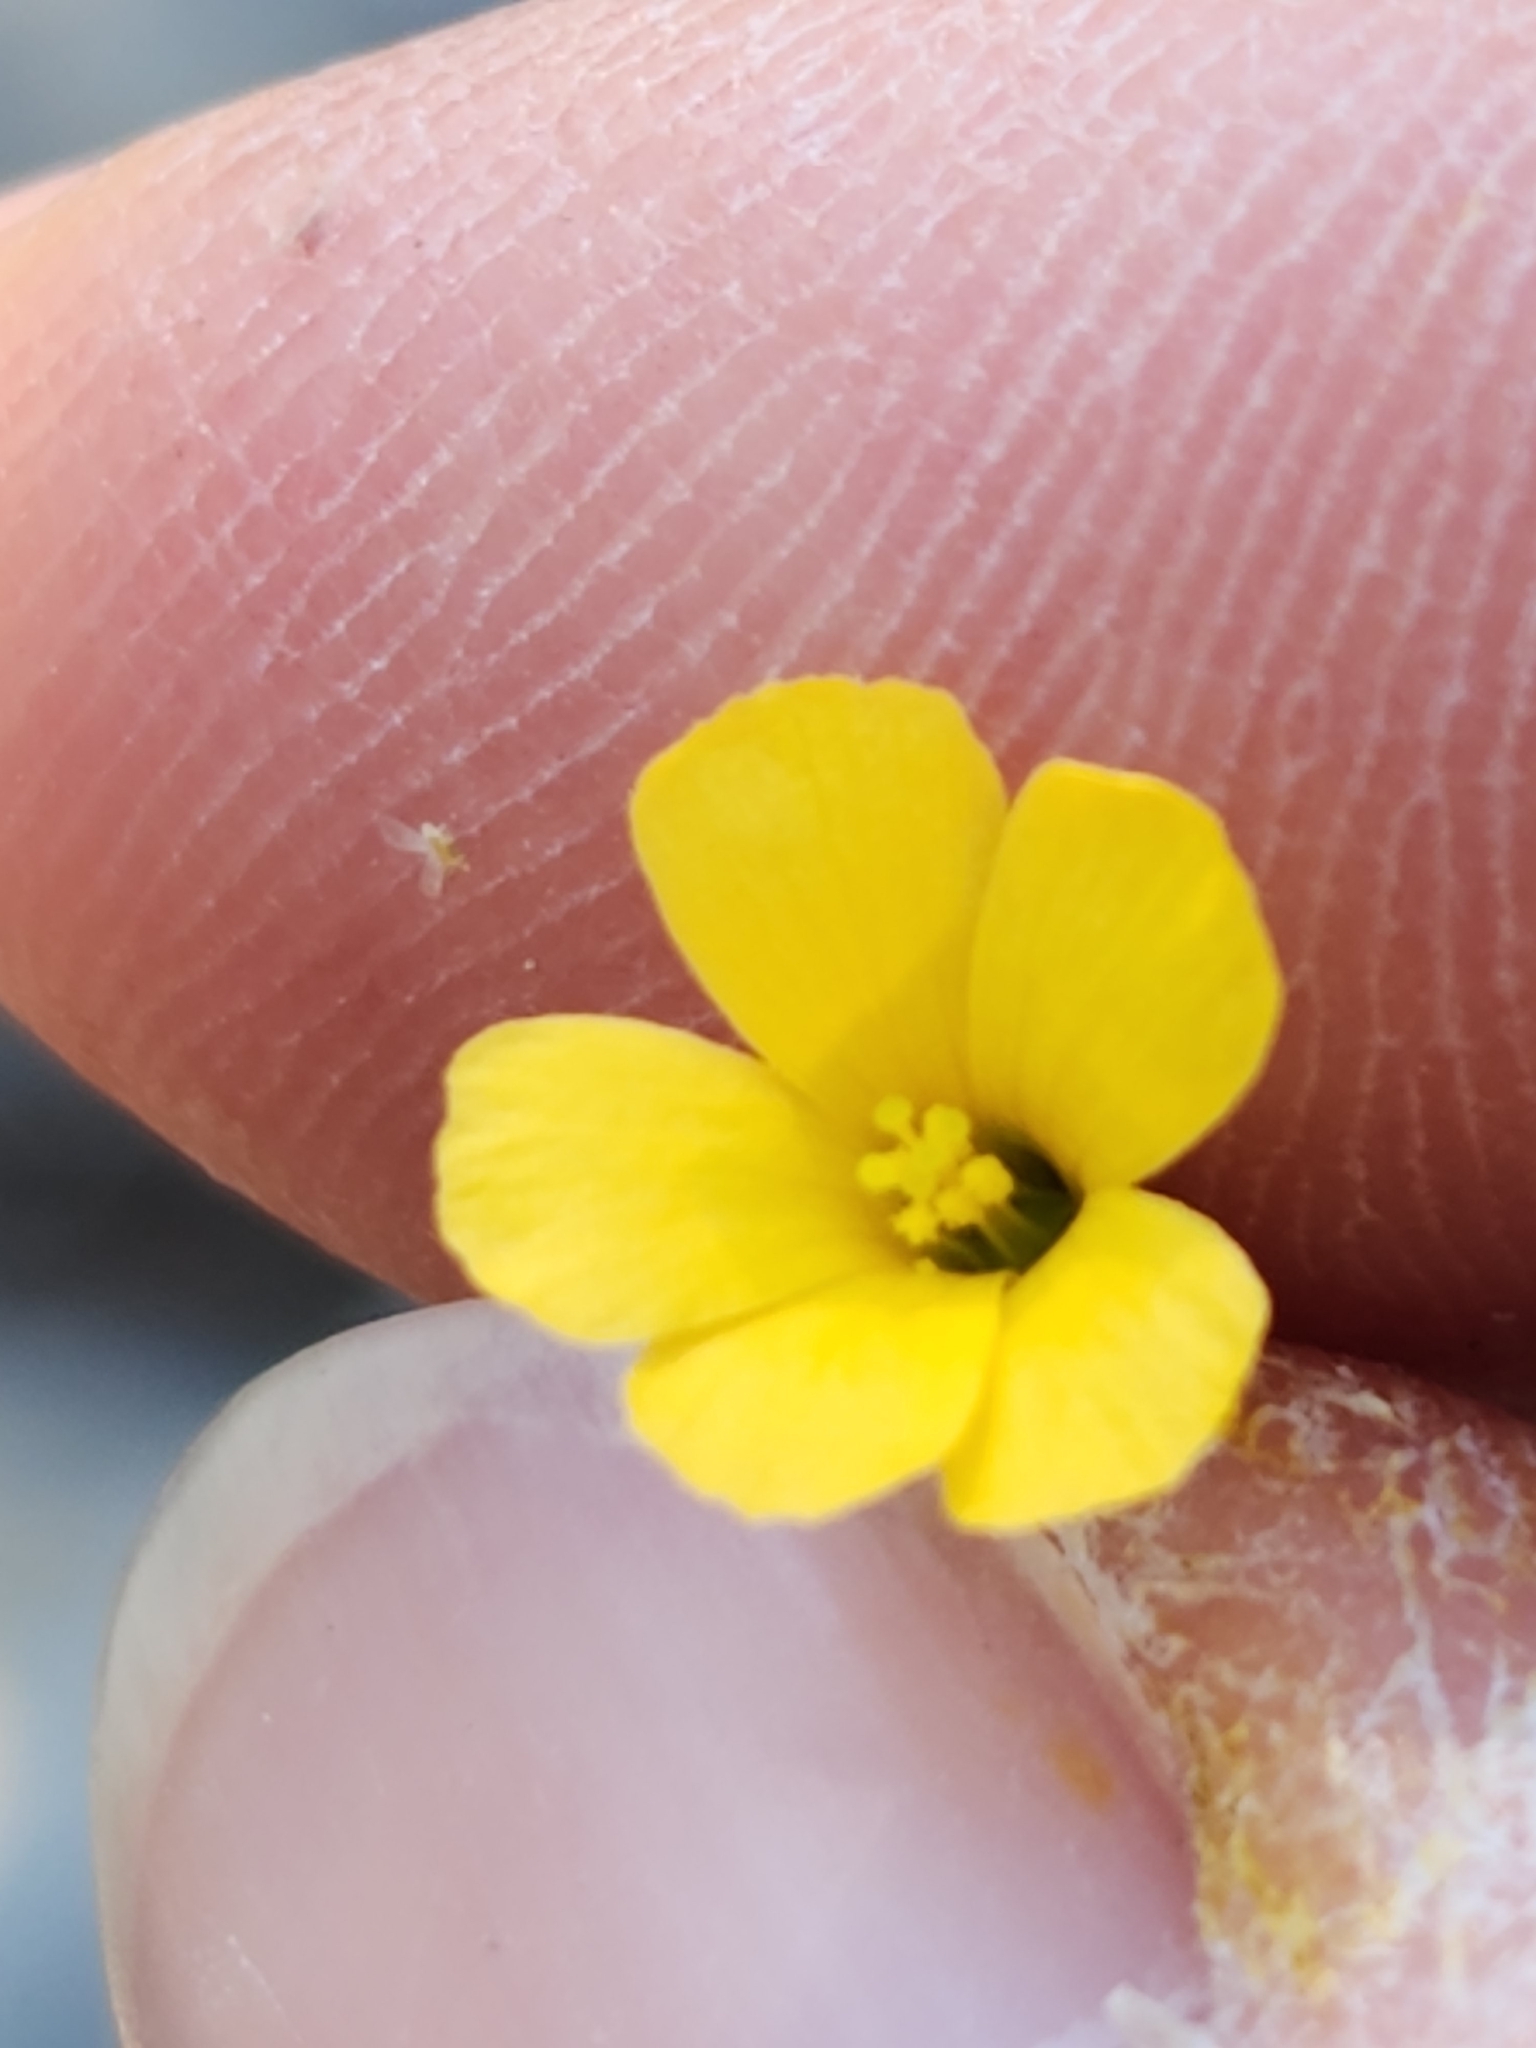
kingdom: Plantae
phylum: Tracheophyta
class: Magnoliopsida
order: Malpighiales
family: Linaceae
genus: Linum
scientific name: Linum rupestre
